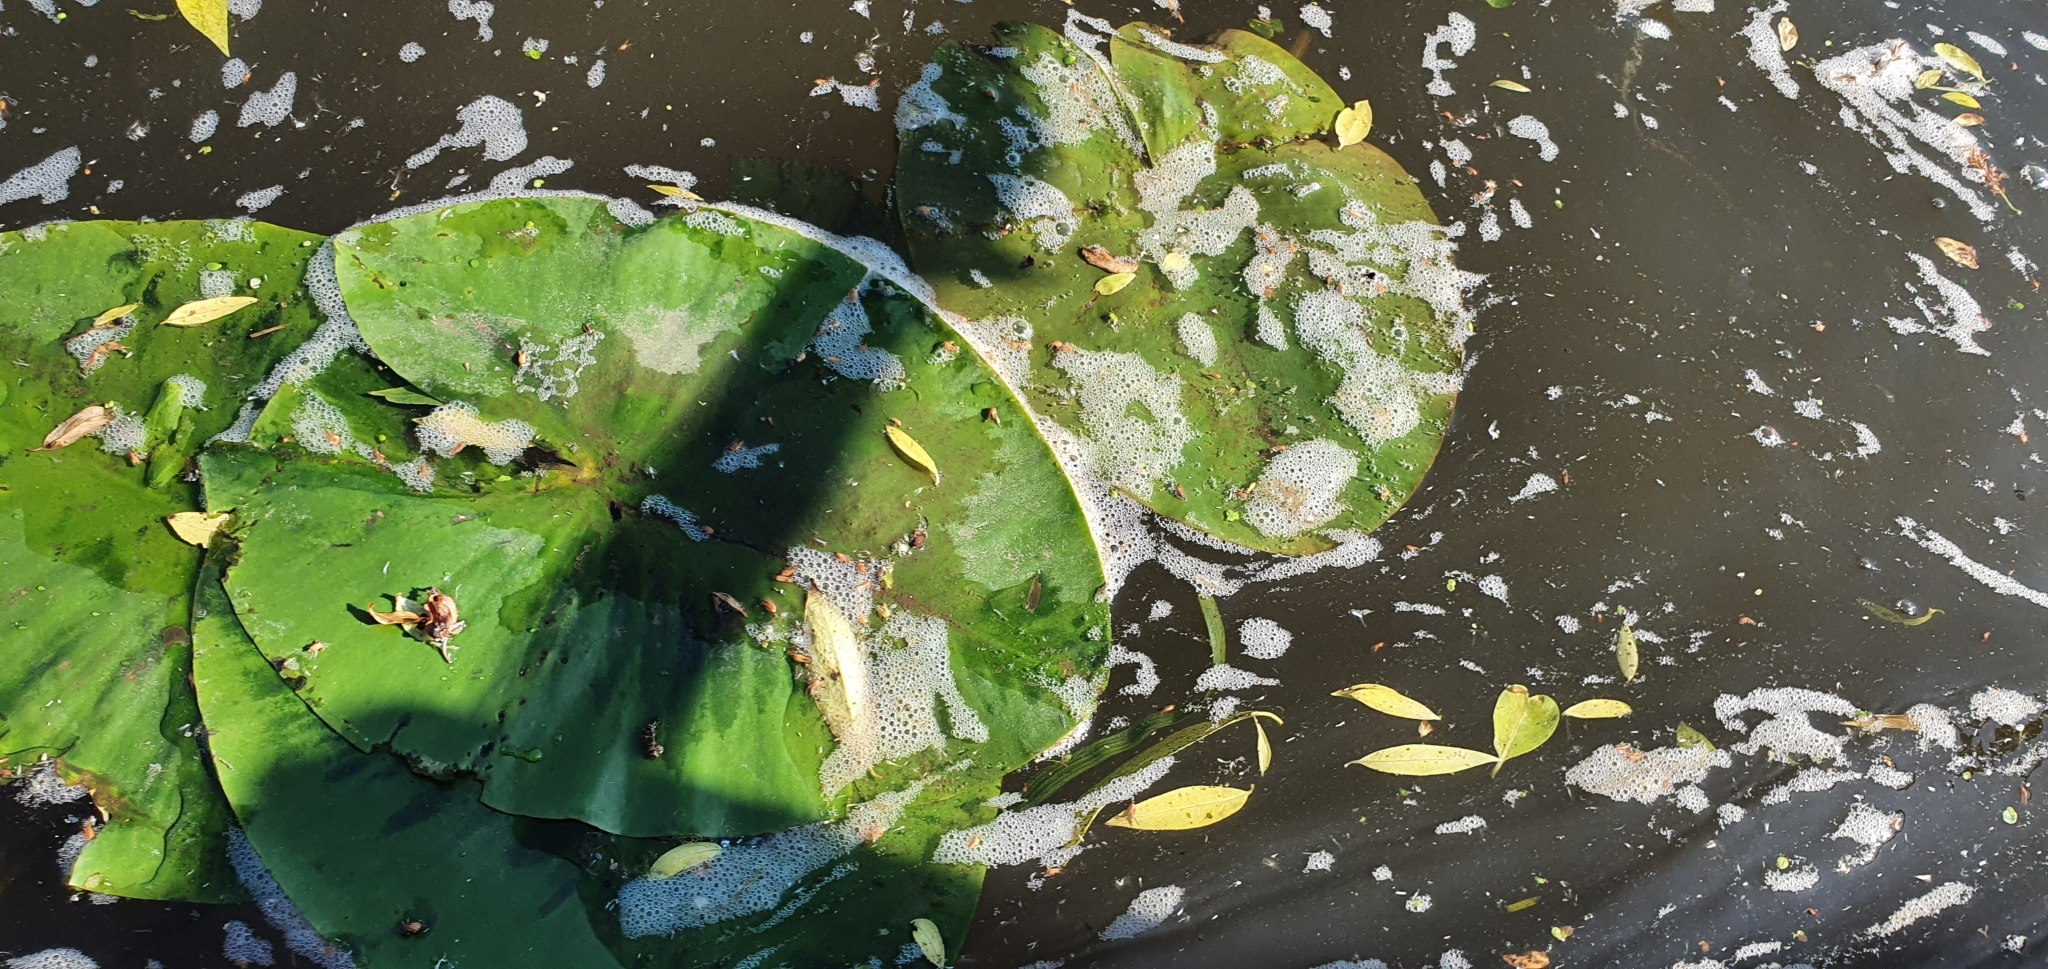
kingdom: Plantae
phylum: Tracheophyta
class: Magnoliopsida
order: Nymphaeales
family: Nymphaeaceae
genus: Nuphar
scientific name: Nuphar lutea
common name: Yellow water-lily
